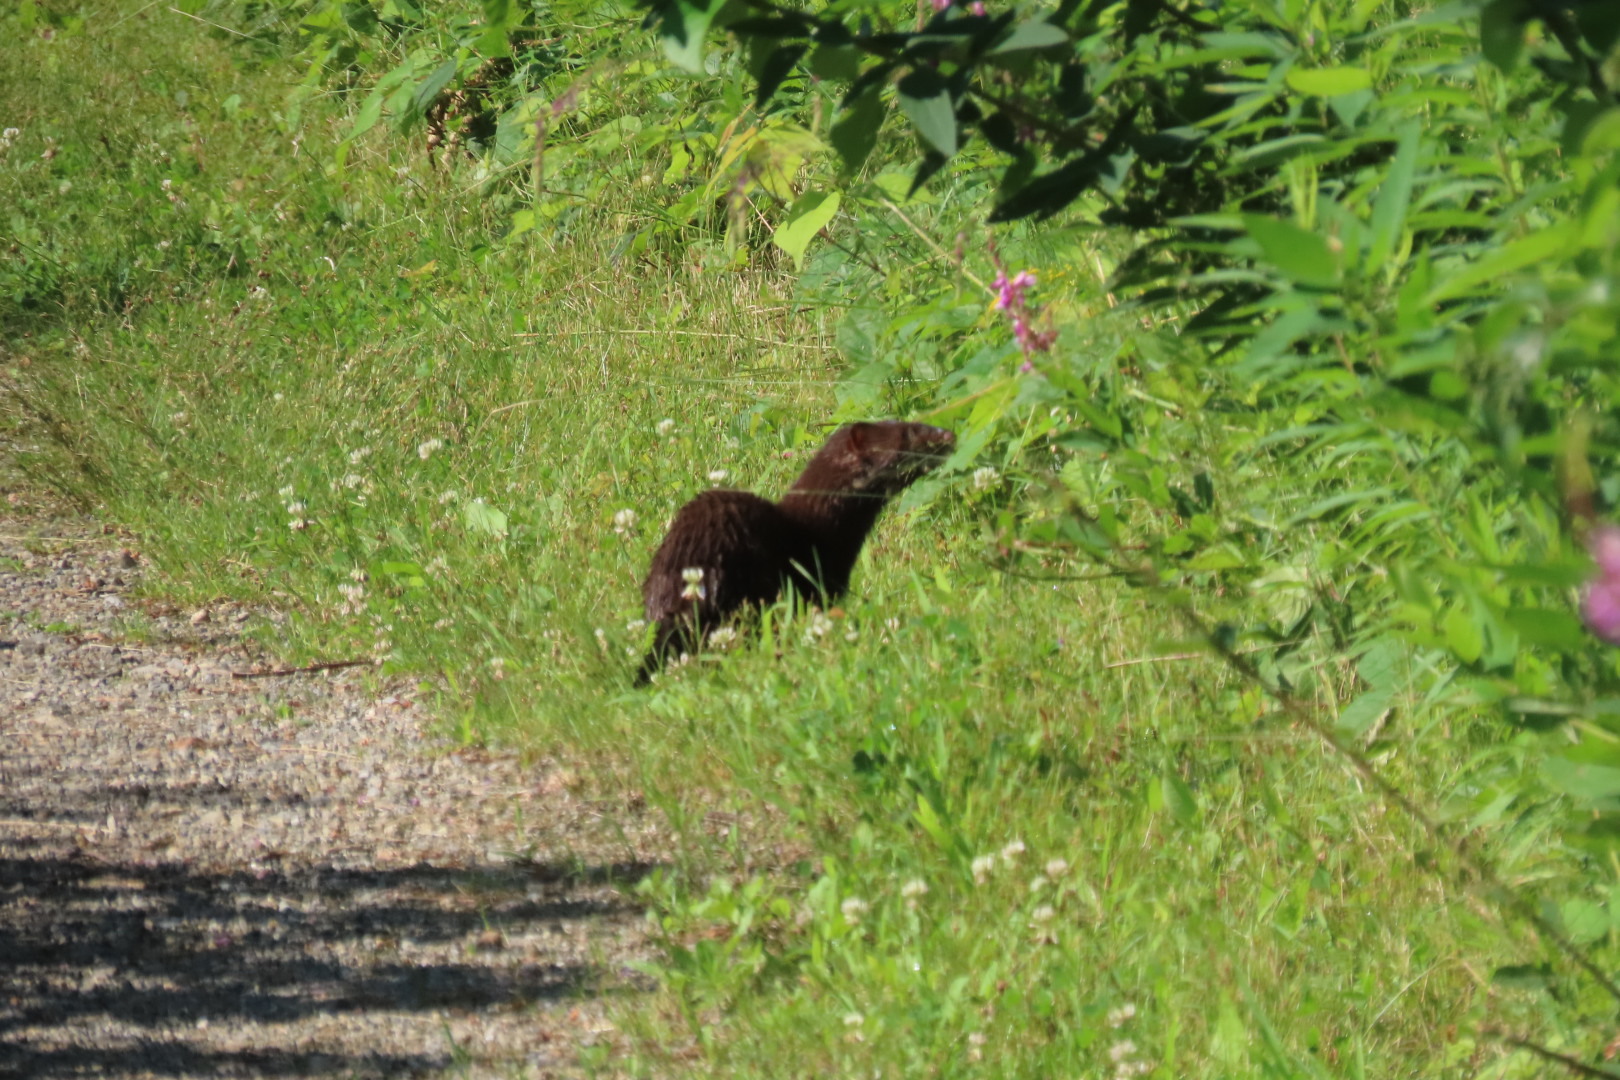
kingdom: Animalia
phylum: Chordata
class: Mammalia
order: Carnivora
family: Mustelidae
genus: Mustela
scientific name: Mustela
